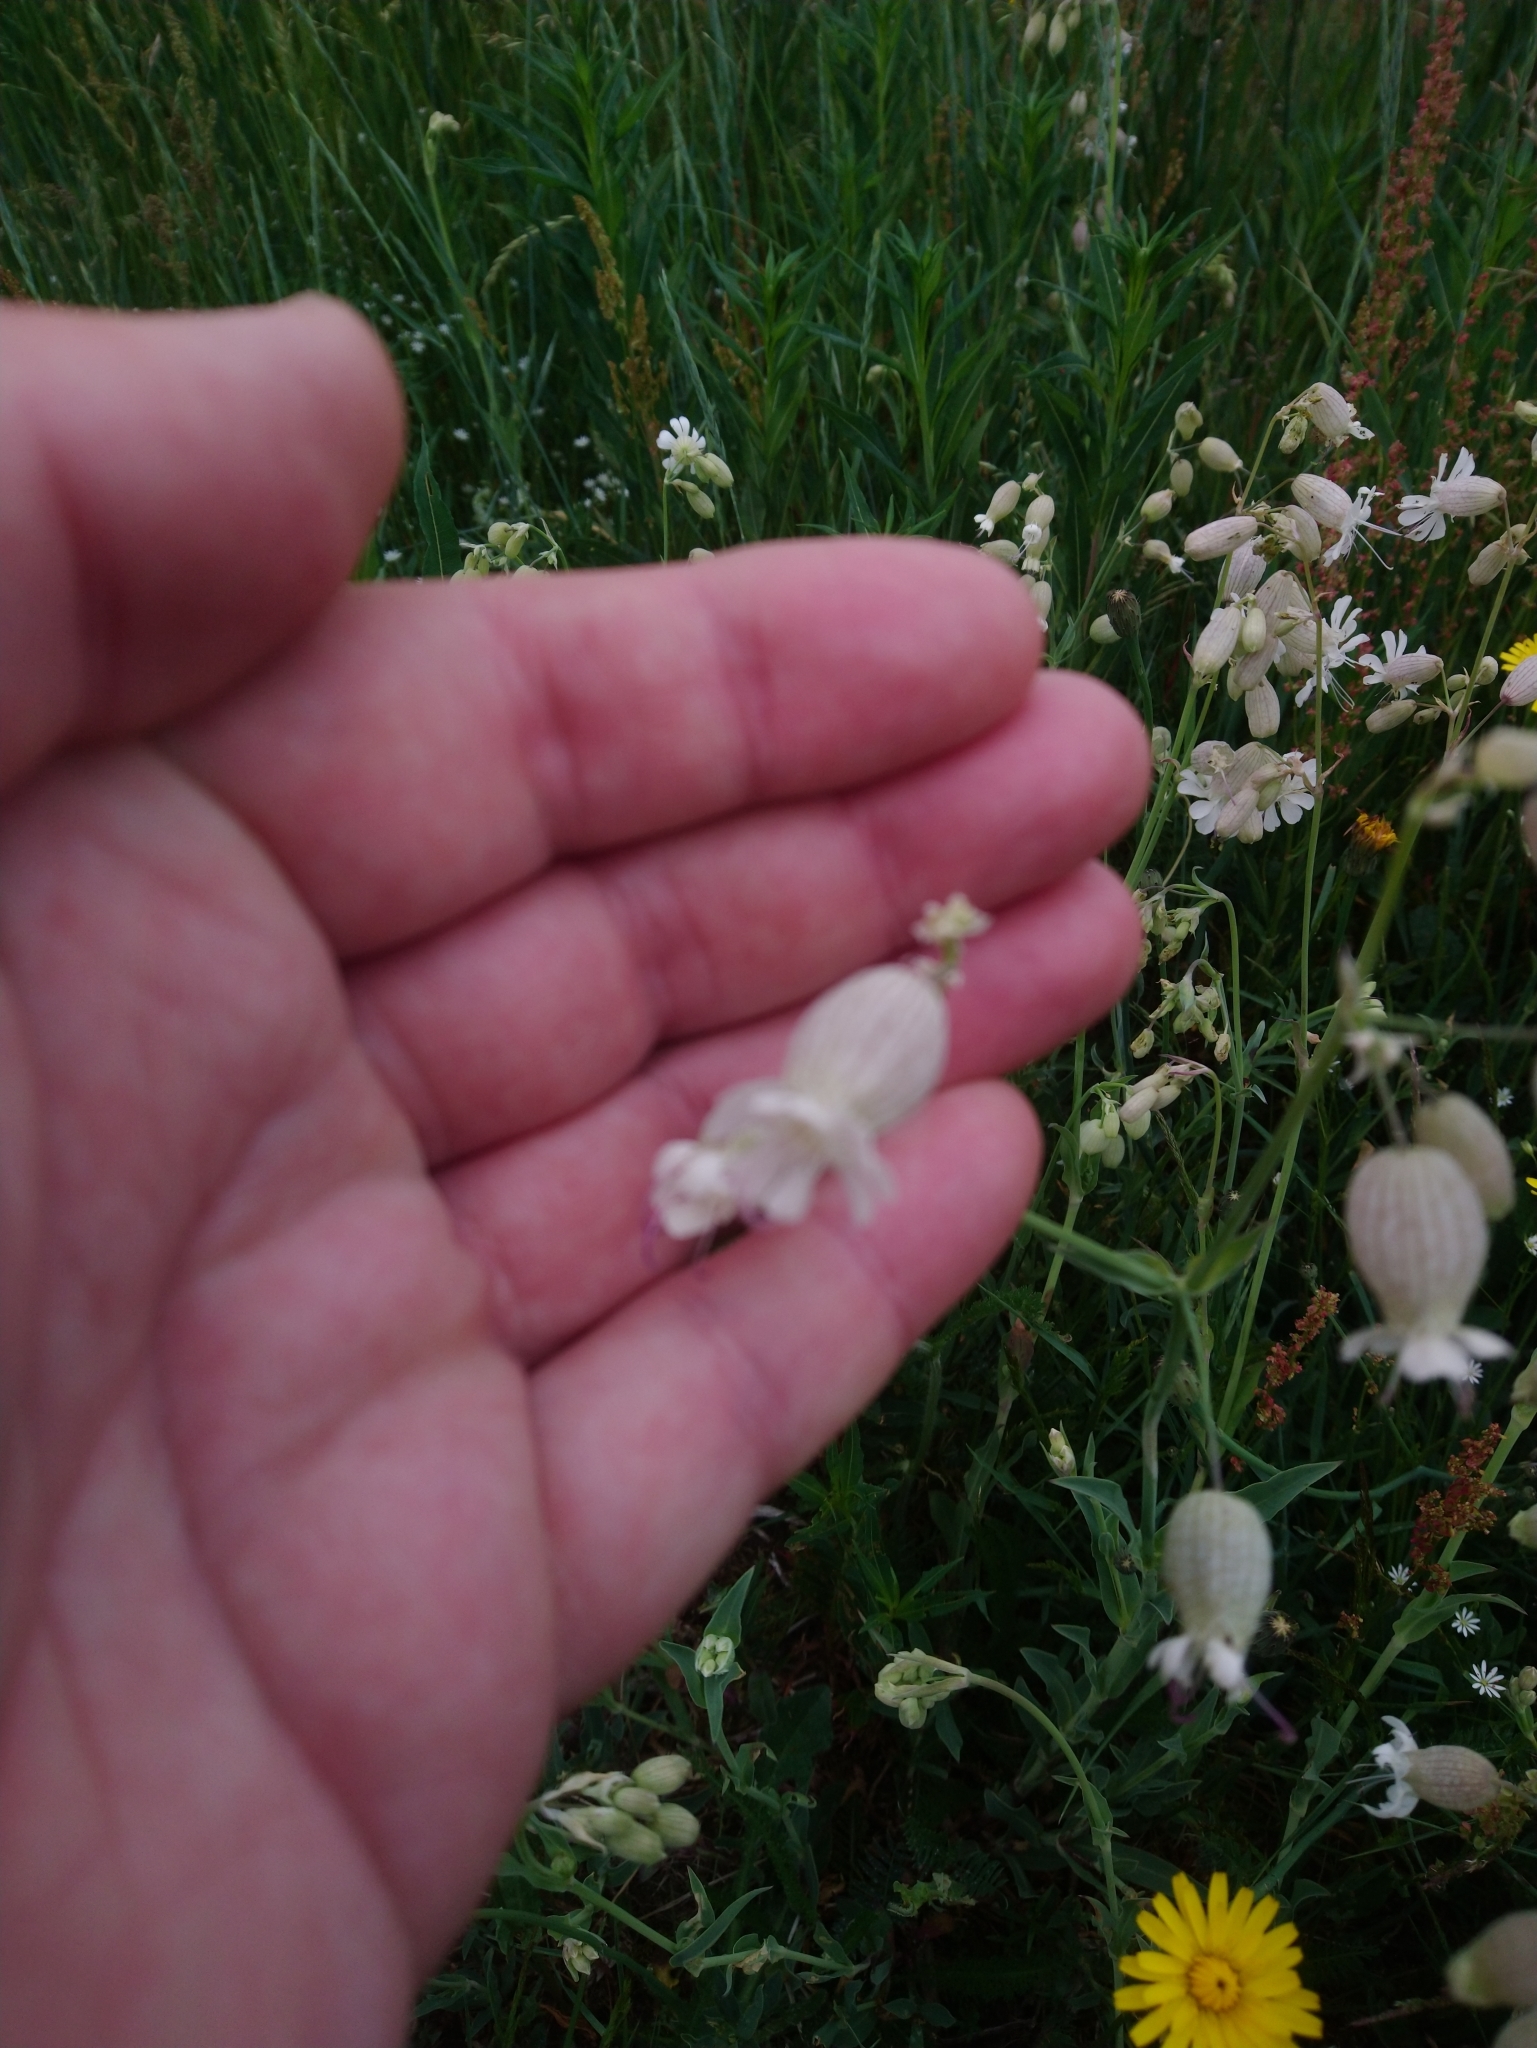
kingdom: Plantae
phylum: Tracheophyta
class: Magnoliopsida
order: Caryophyllales
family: Caryophyllaceae
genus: Silene
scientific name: Silene vulgaris
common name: Bladder campion
